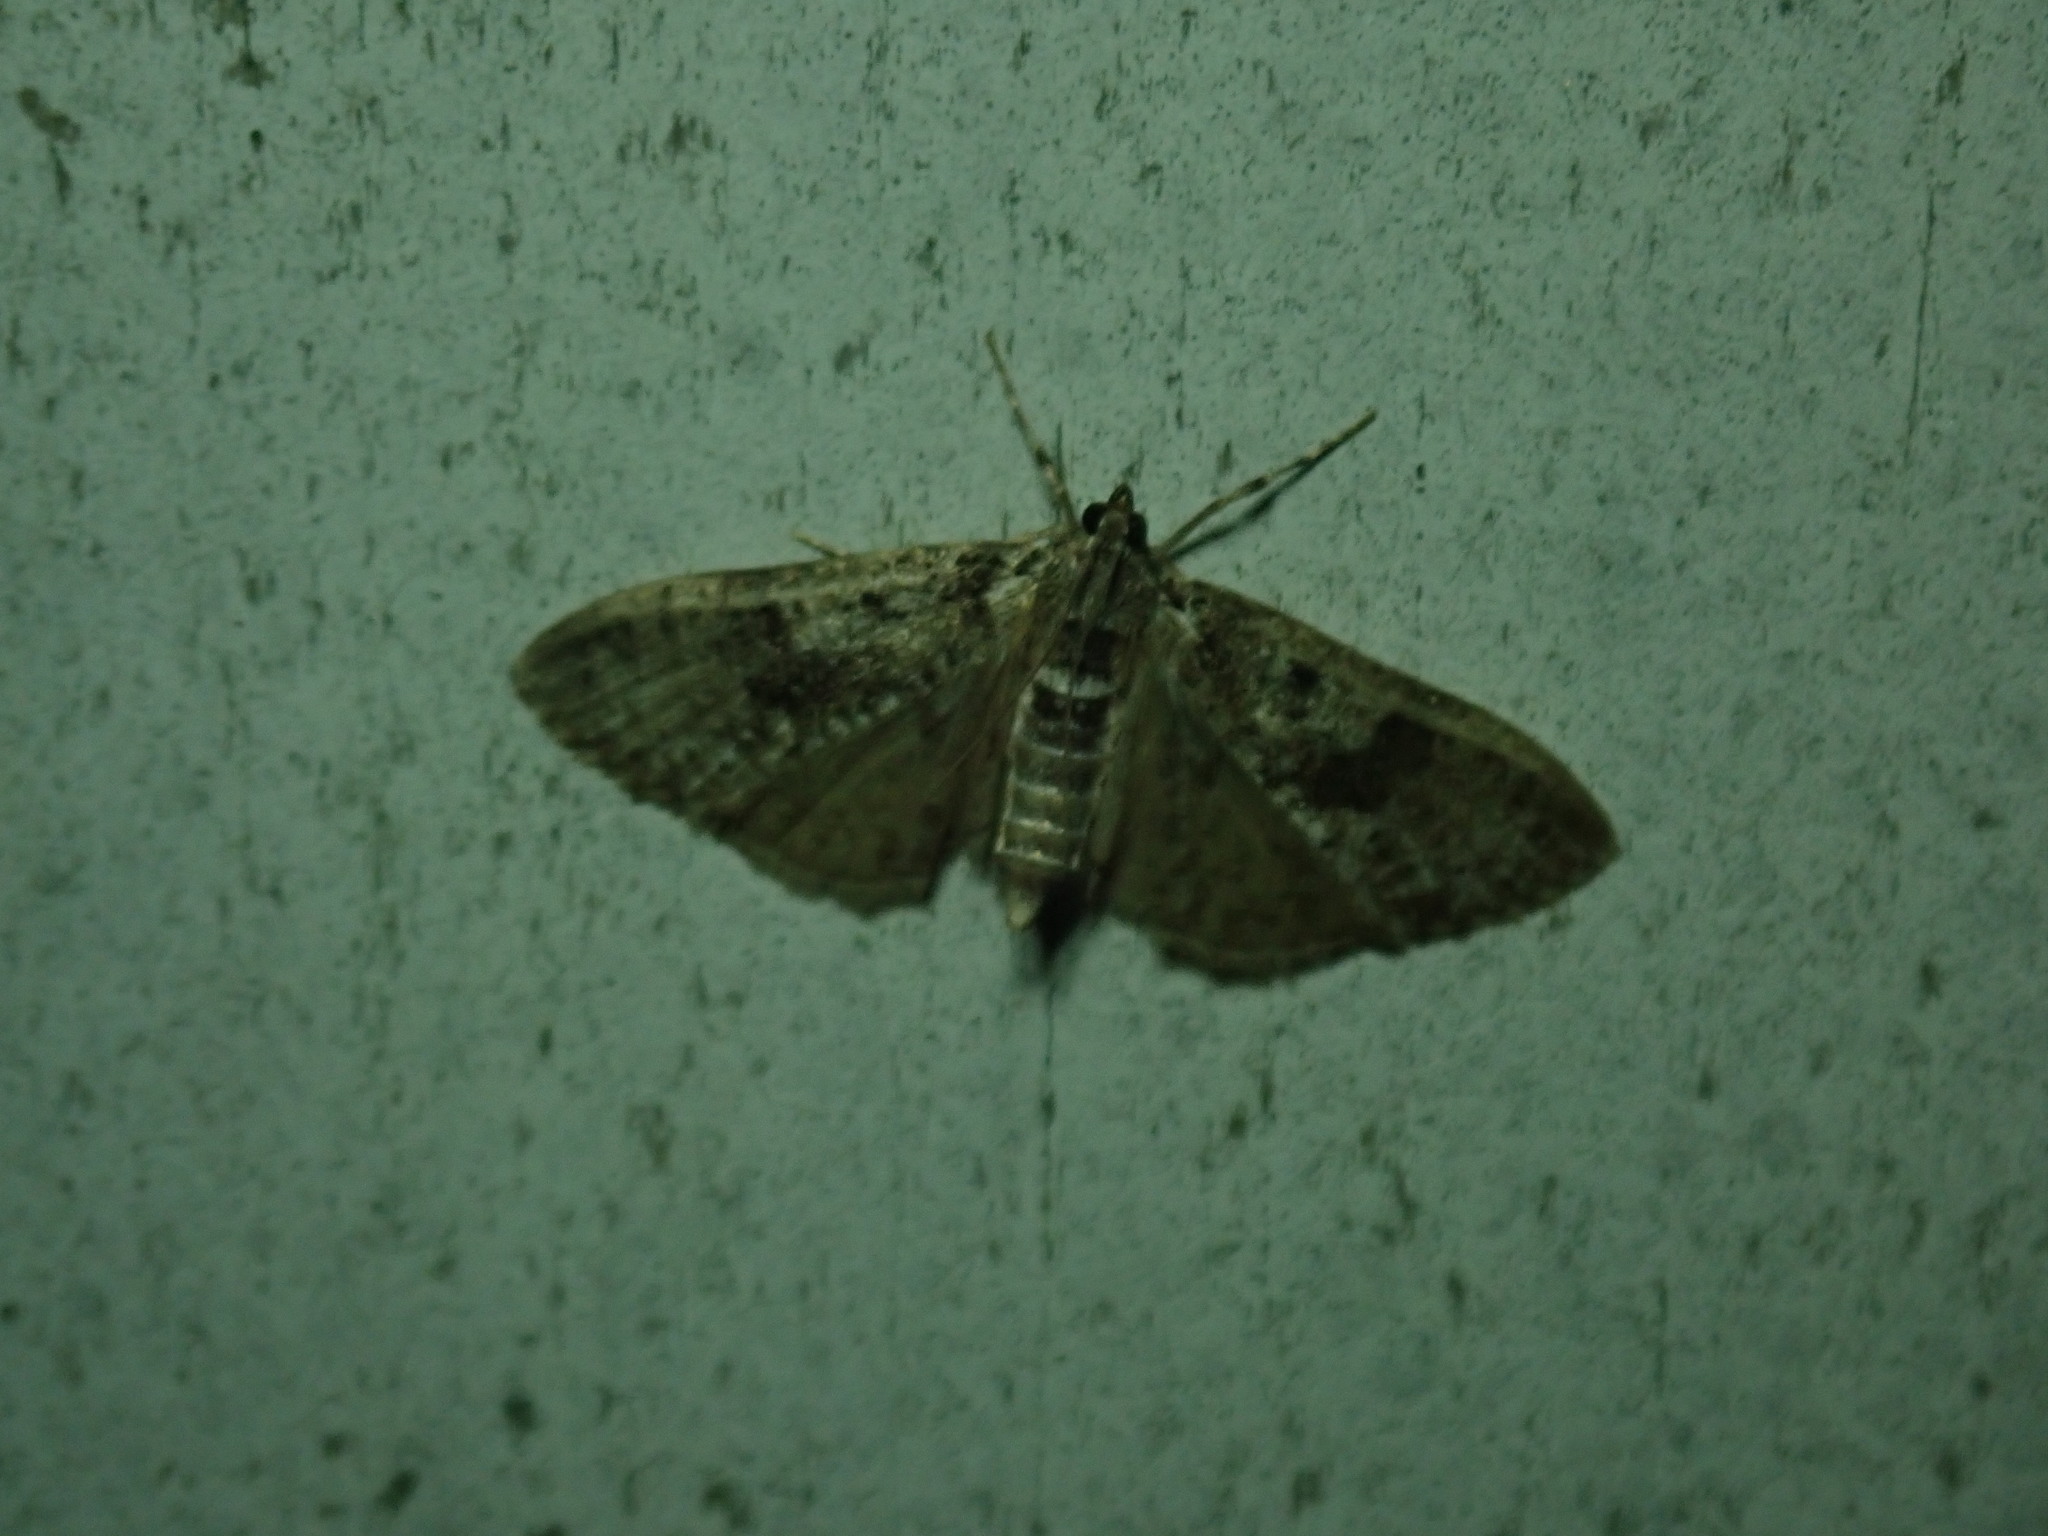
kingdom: Animalia
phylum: Arthropoda
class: Insecta
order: Lepidoptera
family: Crambidae
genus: Palpita
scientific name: Palpita magniferalis
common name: Splendid palpita moth
